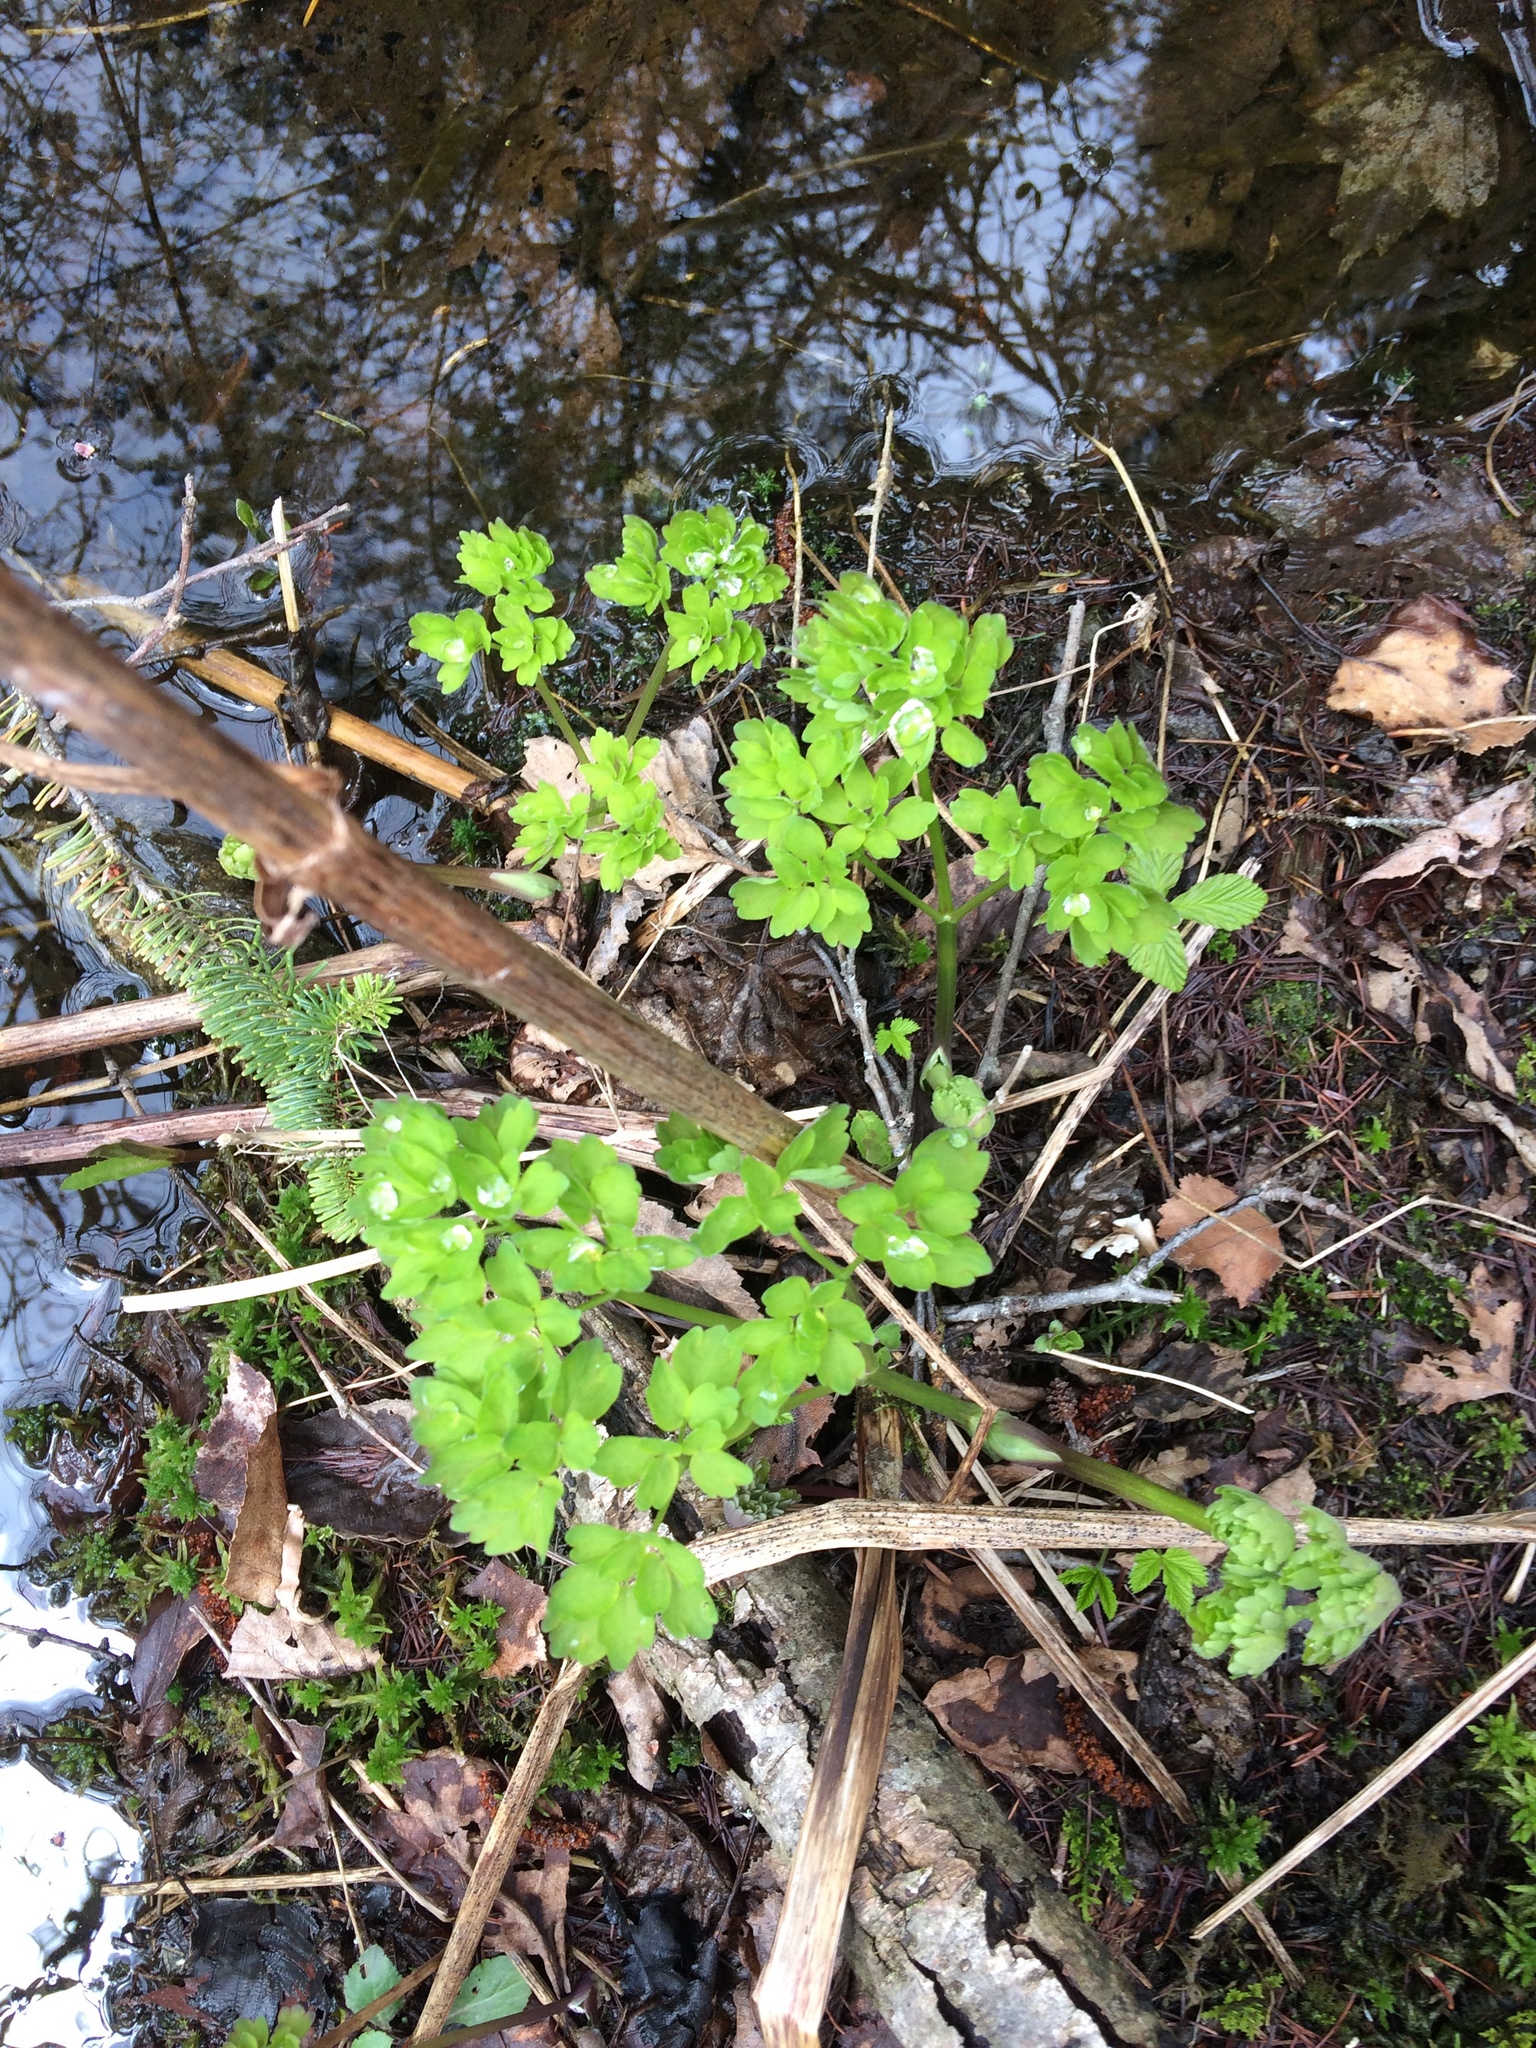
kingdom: Plantae
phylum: Tracheophyta
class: Magnoliopsida
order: Ranunculales
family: Ranunculaceae
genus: Thalictrum
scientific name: Thalictrum pubescens
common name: King-of-the-meadow
